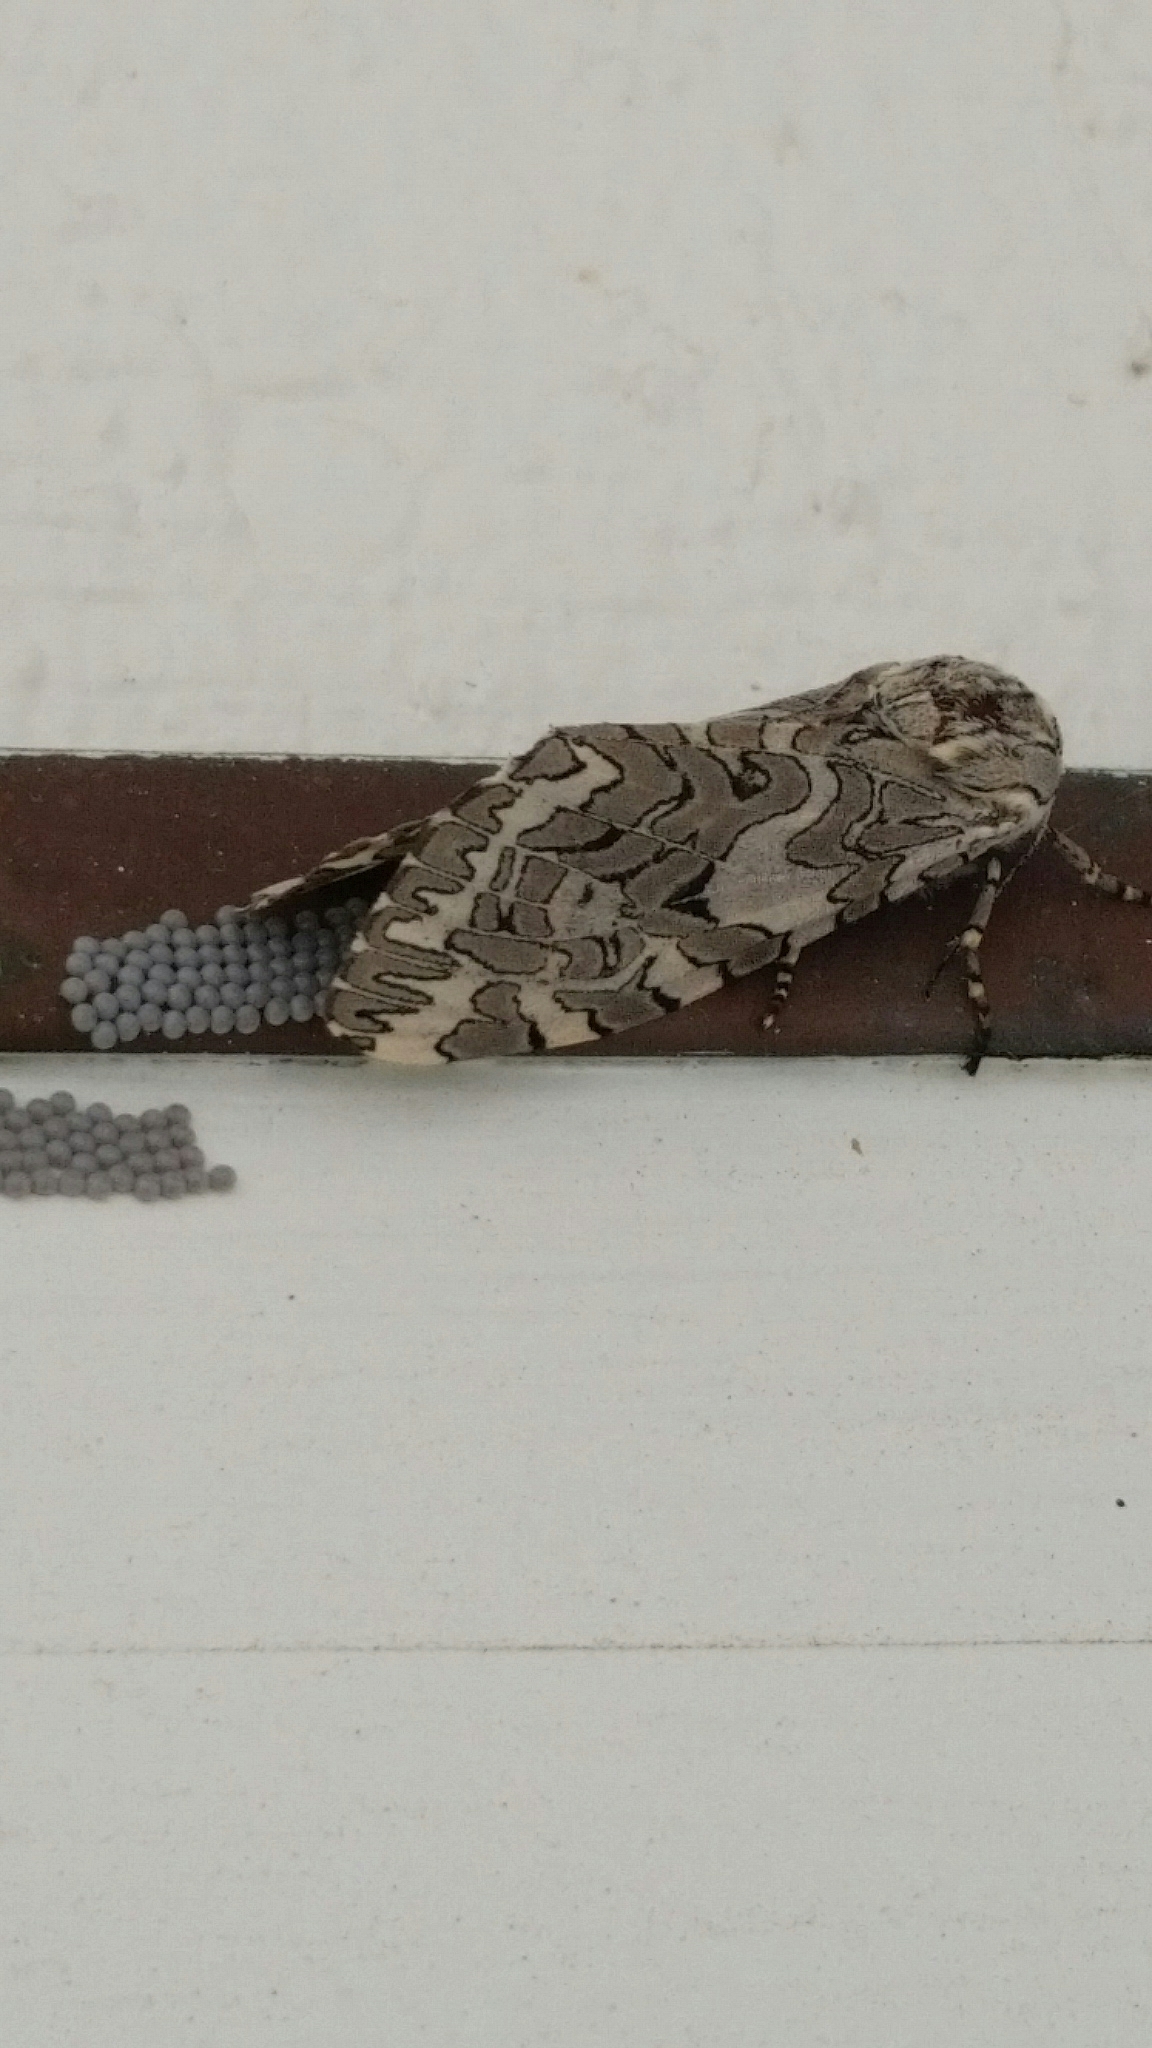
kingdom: Animalia
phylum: Arthropoda
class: Insecta
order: Lepidoptera
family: Erebidae
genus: Arachnis
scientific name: Arachnis picta
